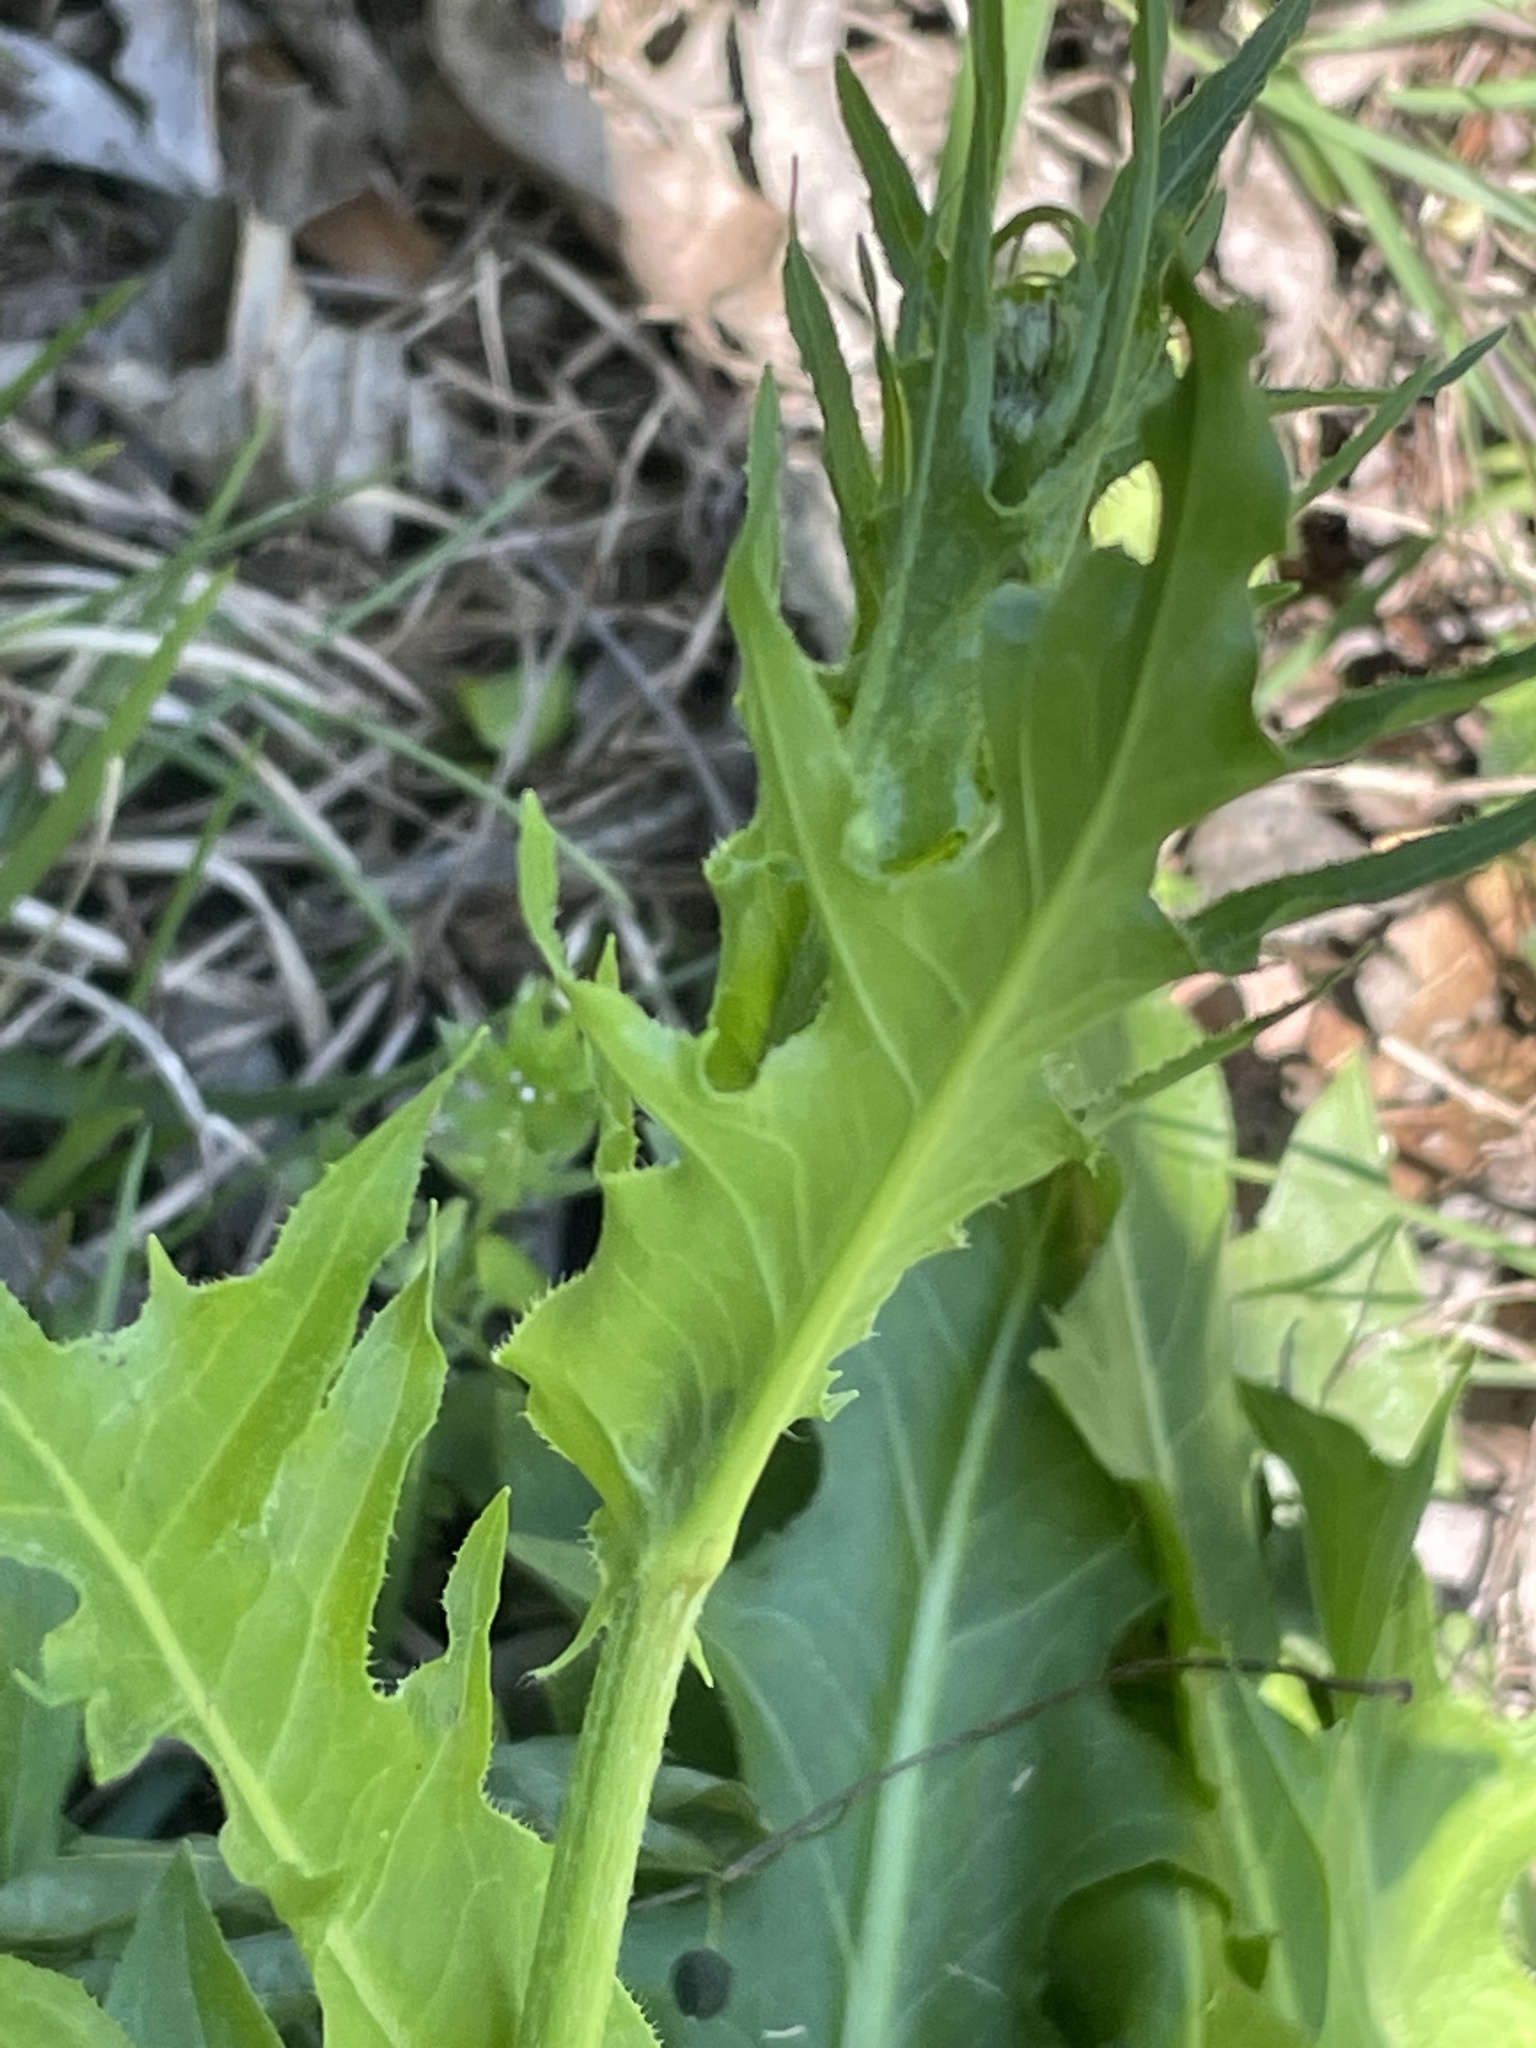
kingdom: Plantae
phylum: Tracheophyta
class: Magnoliopsida
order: Asterales
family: Asteraceae
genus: Hypochaeris
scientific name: Hypochaeris chillensis
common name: Brazilian cat's ear
